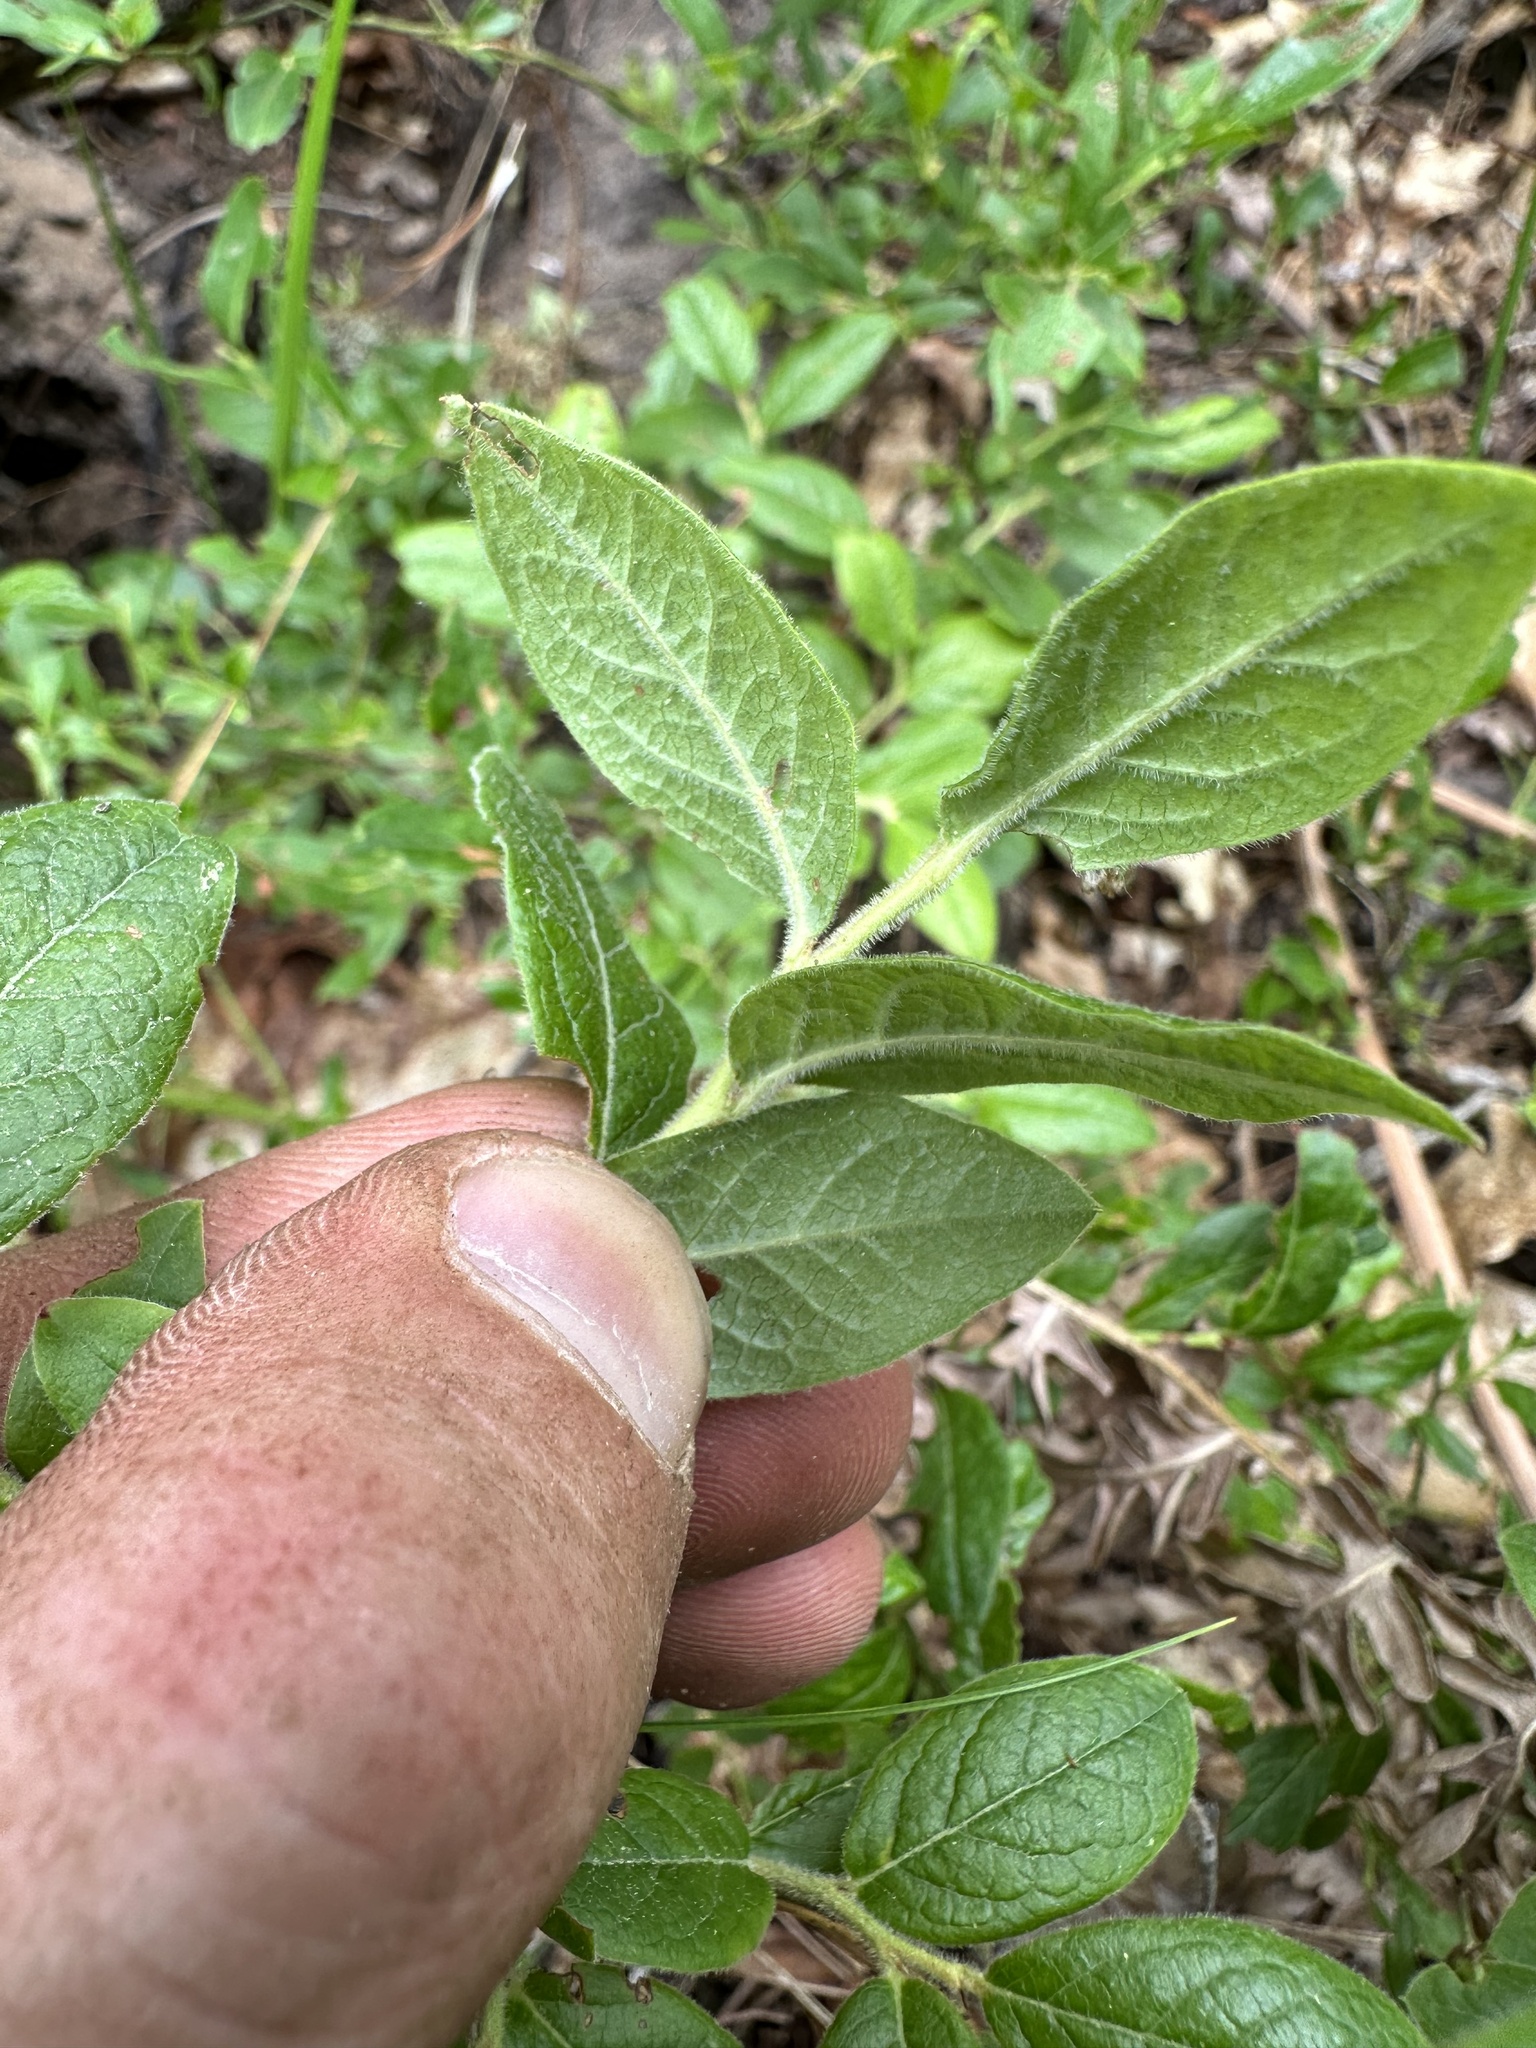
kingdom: Plantae
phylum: Tracheophyta
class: Magnoliopsida
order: Ericales
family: Ericaceae
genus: Vaccinium
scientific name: Vaccinium myrtilloides
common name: Canada blueberry
